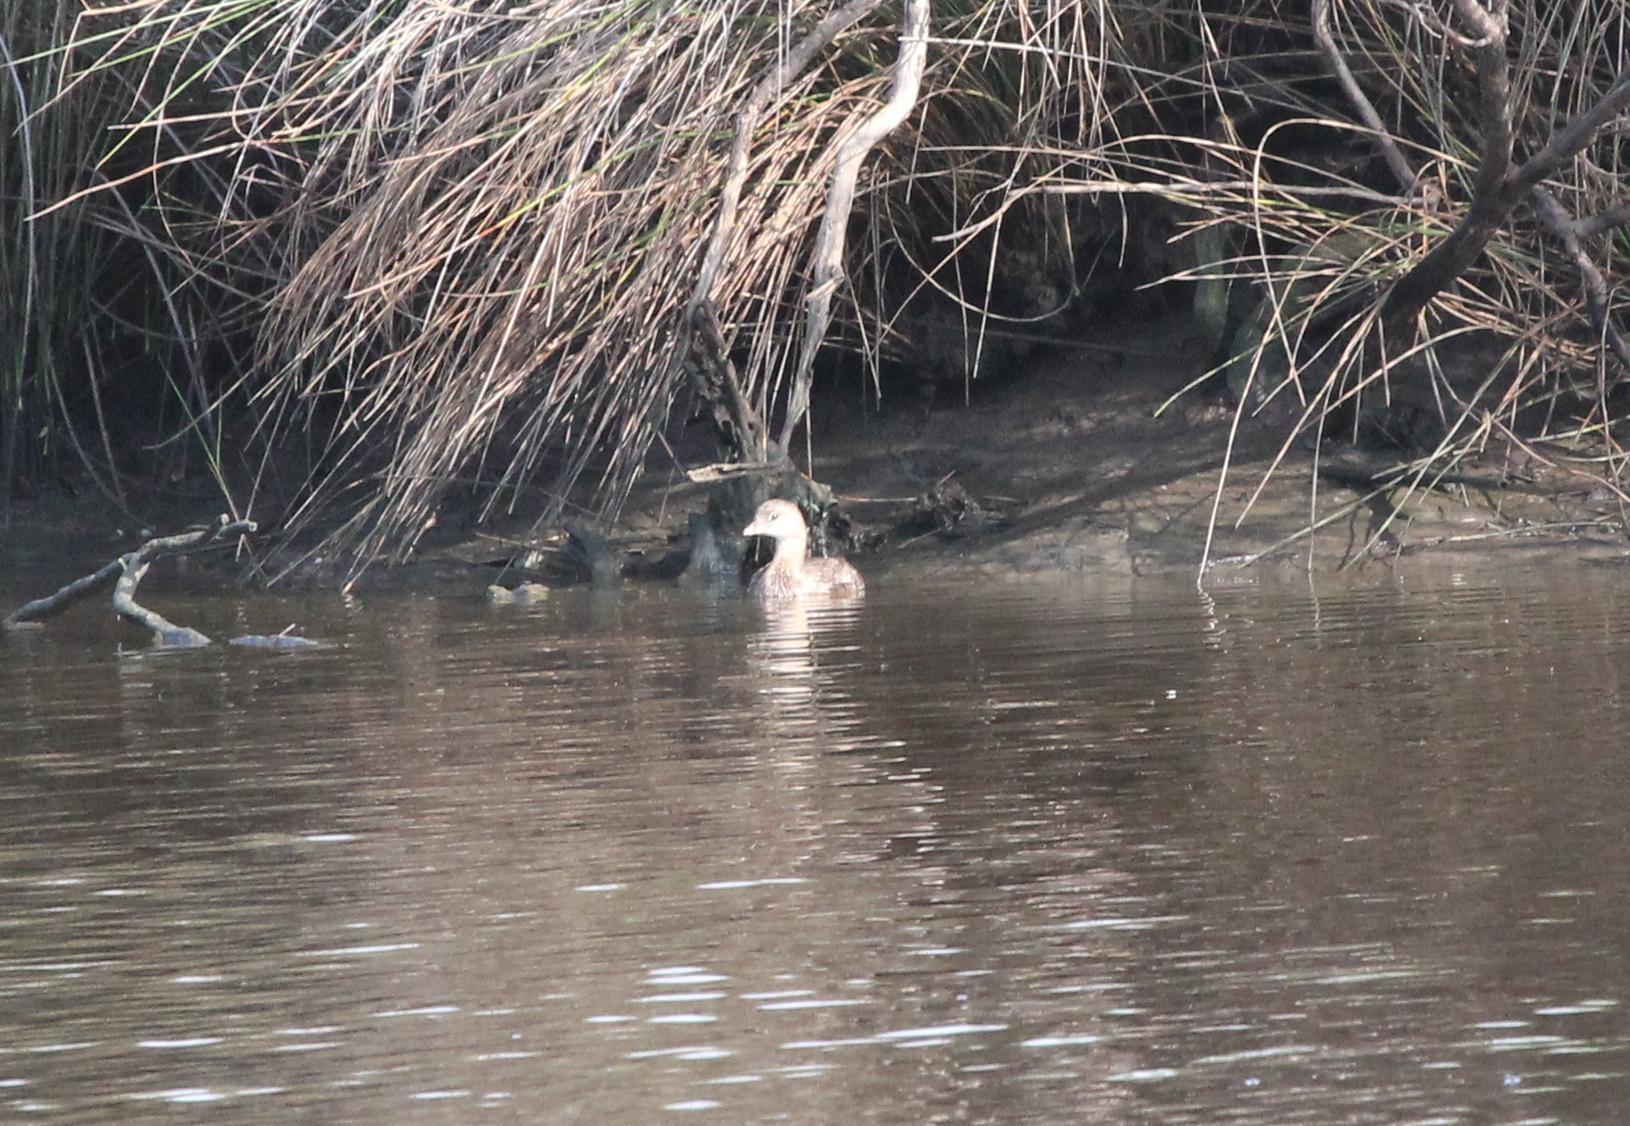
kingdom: Animalia
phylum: Chordata
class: Aves
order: Podicipediformes
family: Podicipedidae
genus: Podilymbus
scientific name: Podilymbus podiceps
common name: Pied-billed grebe
